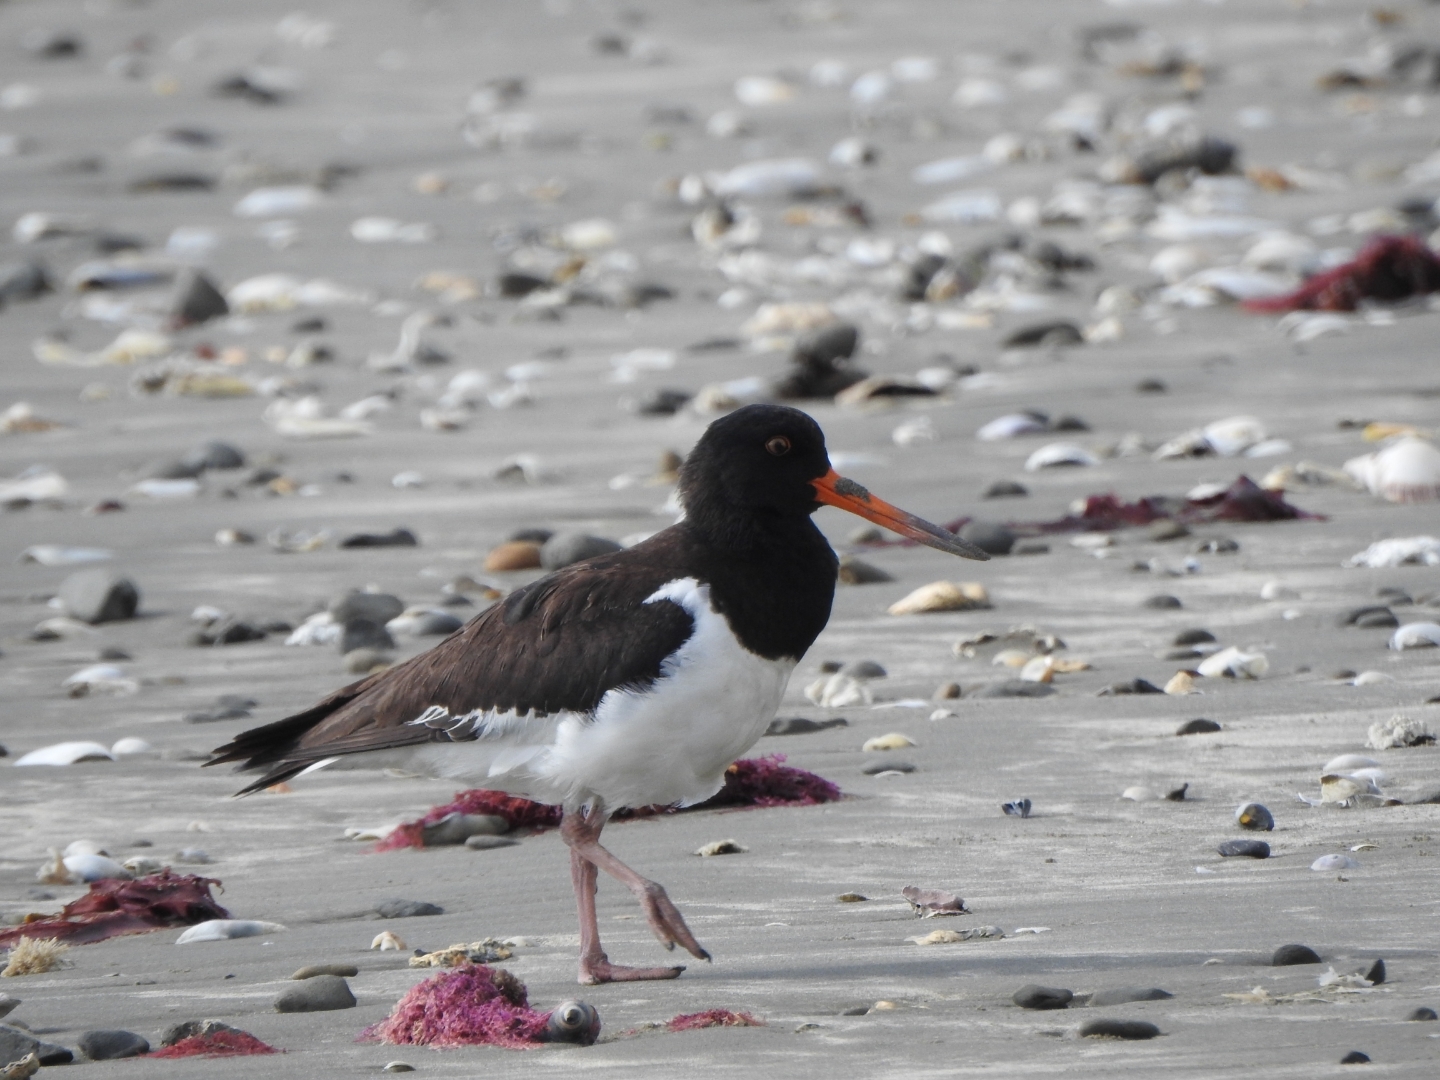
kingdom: Animalia
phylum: Chordata
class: Aves
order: Charadriiformes
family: Haematopodidae
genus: Haematopus
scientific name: Haematopus finschi
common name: South island oystercatcher
